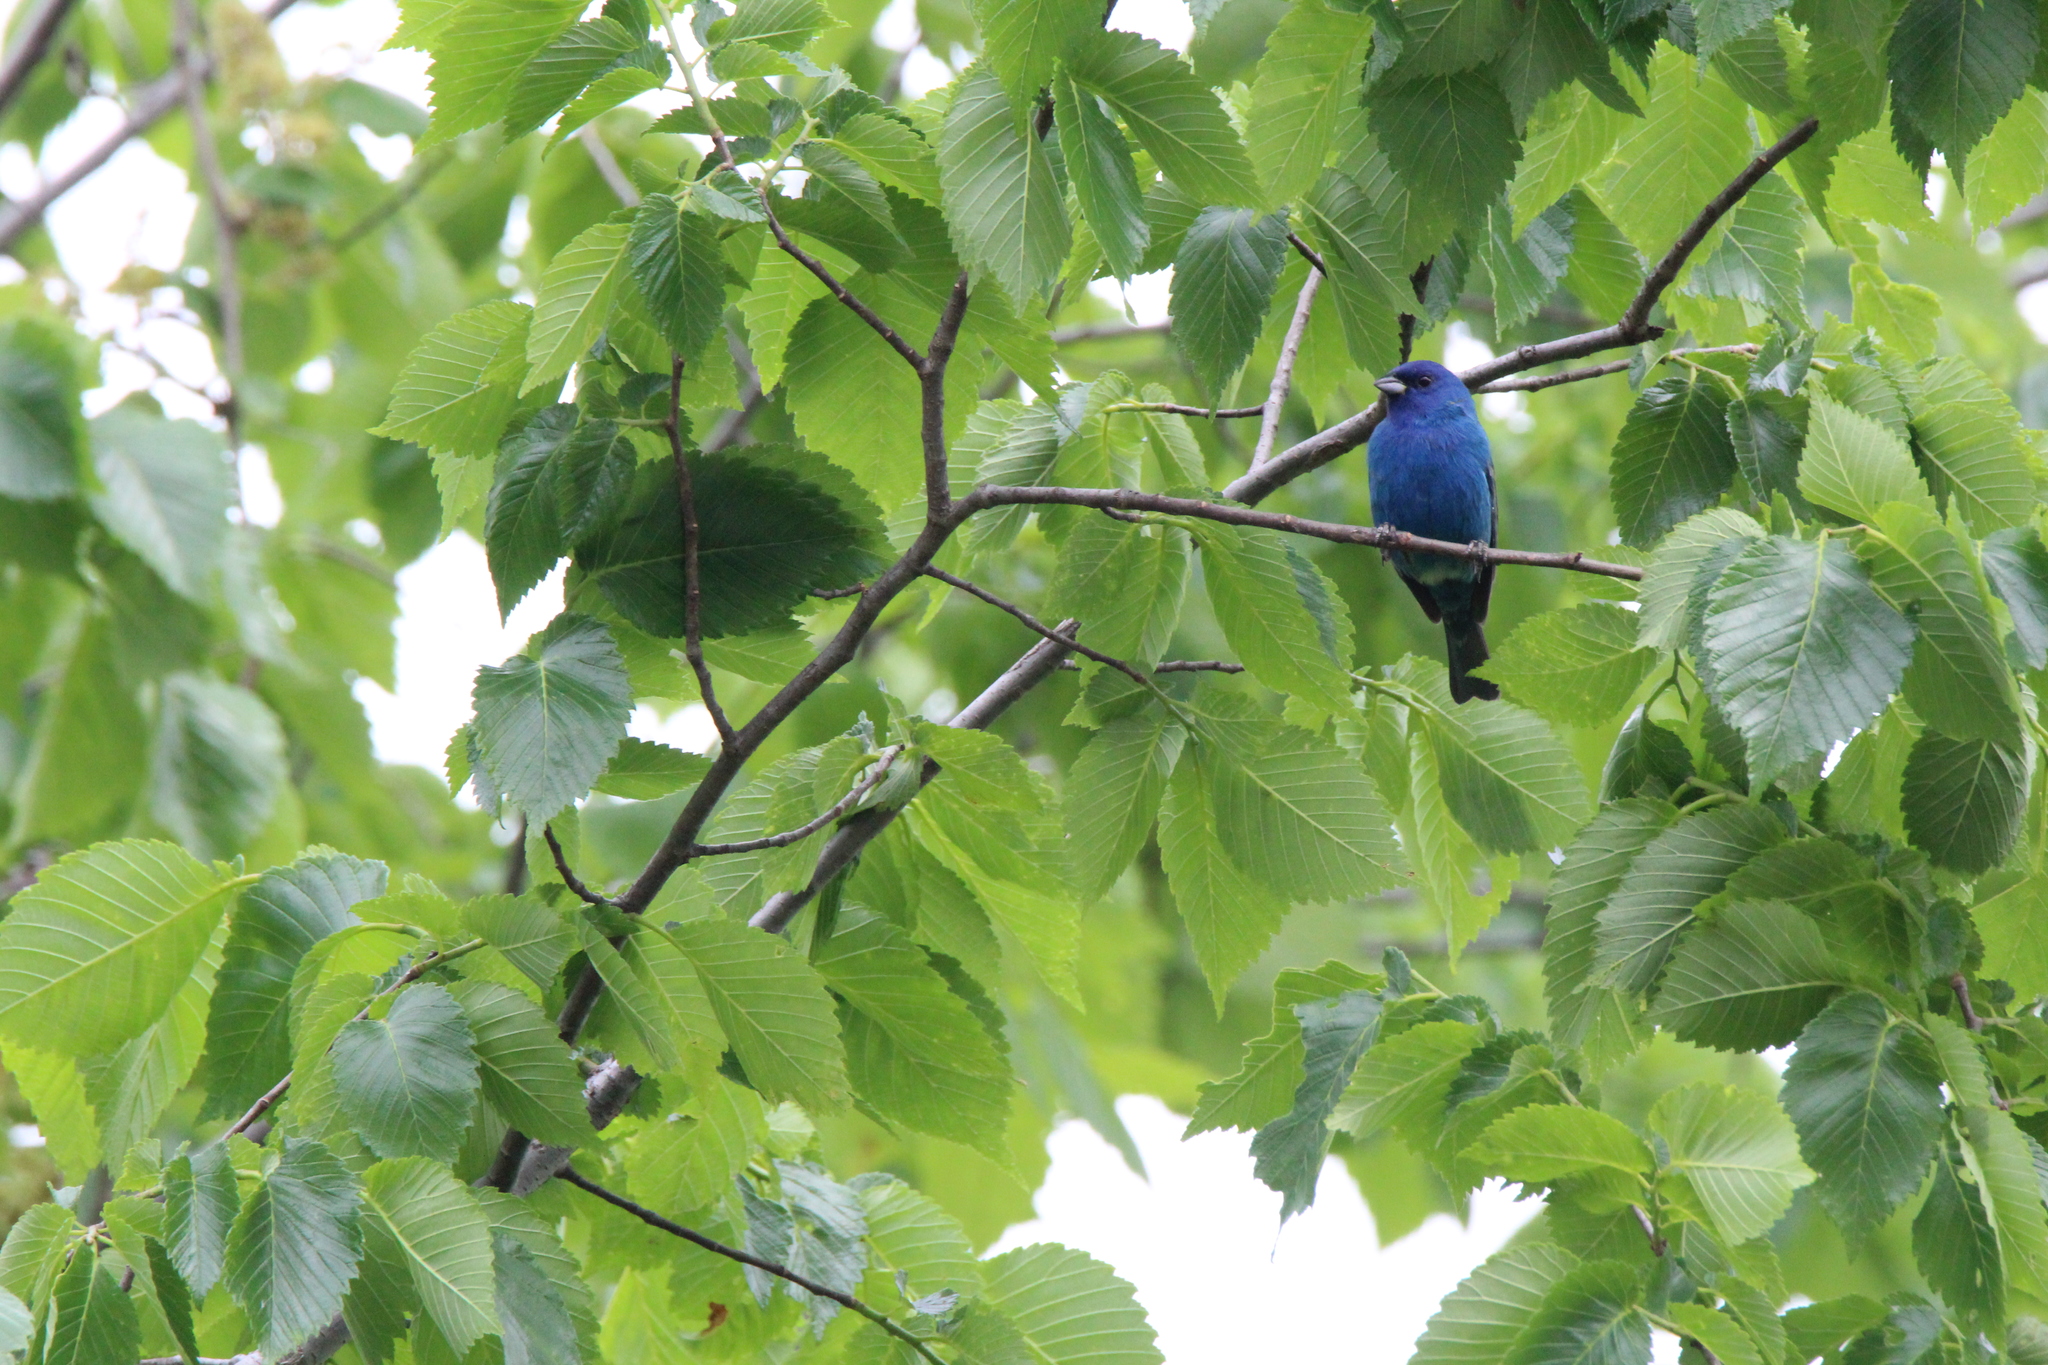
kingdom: Animalia
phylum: Chordata
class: Aves
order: Passeriformes
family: Cardinalidae
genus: Passerina
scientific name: Passerina cyanea
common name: Indigo bunting
